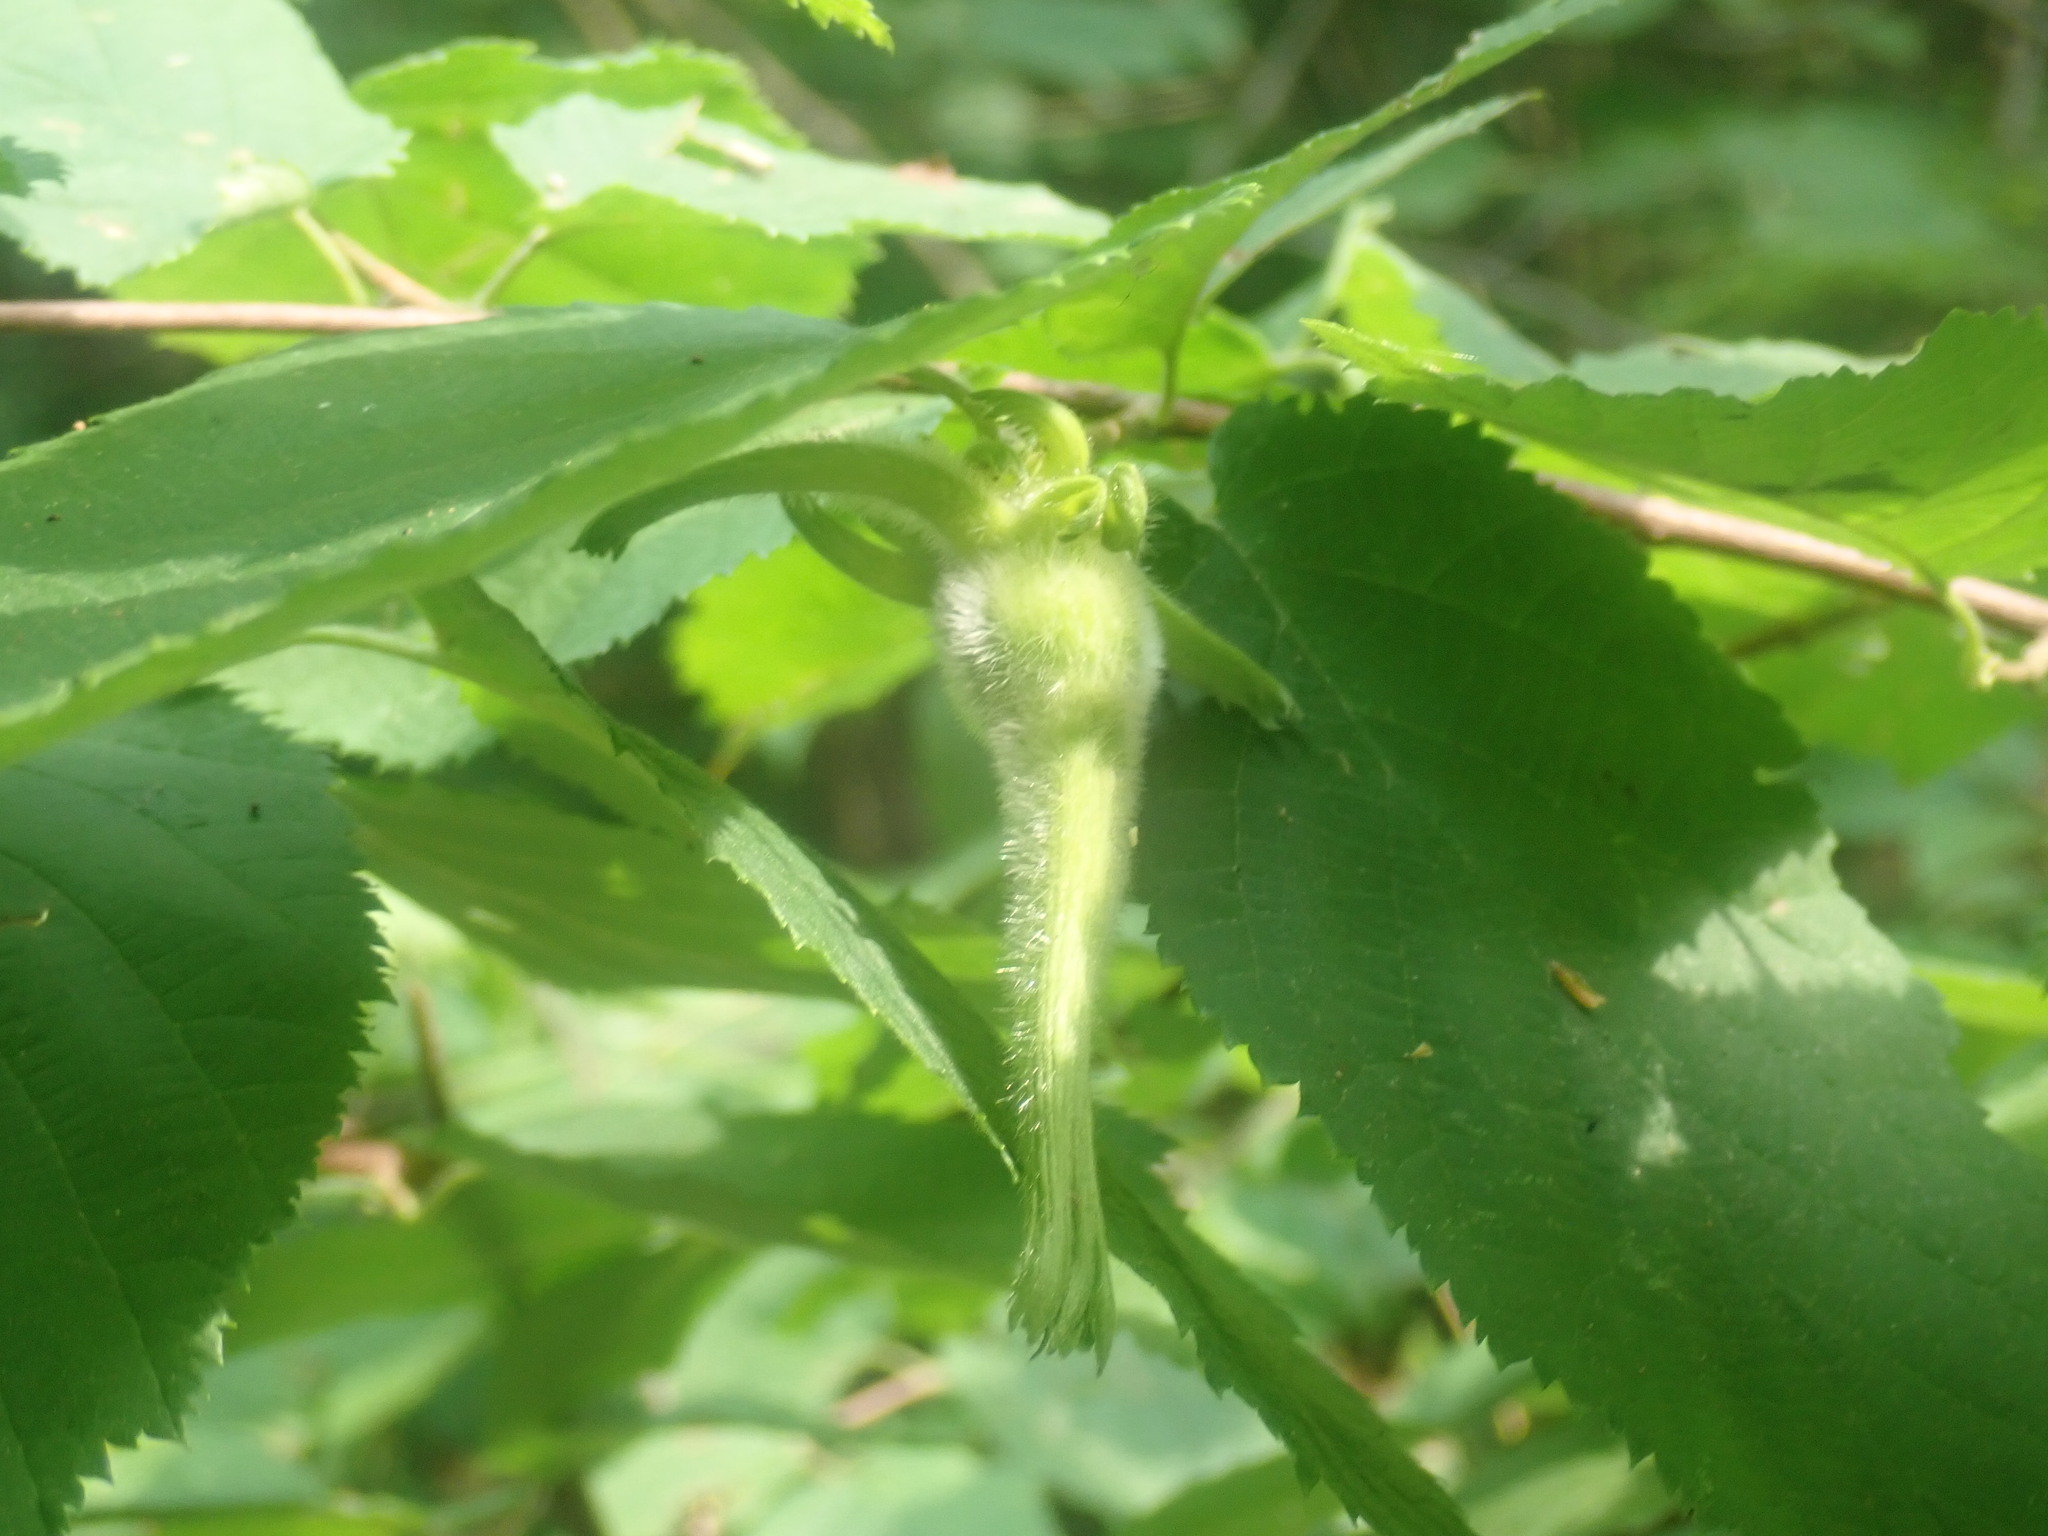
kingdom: Plantae
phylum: Tracheophyta
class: Magnoliopsida
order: Fagales
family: Betulaceae
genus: Corylus
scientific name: Corylus cornuta
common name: Beaked hazel
